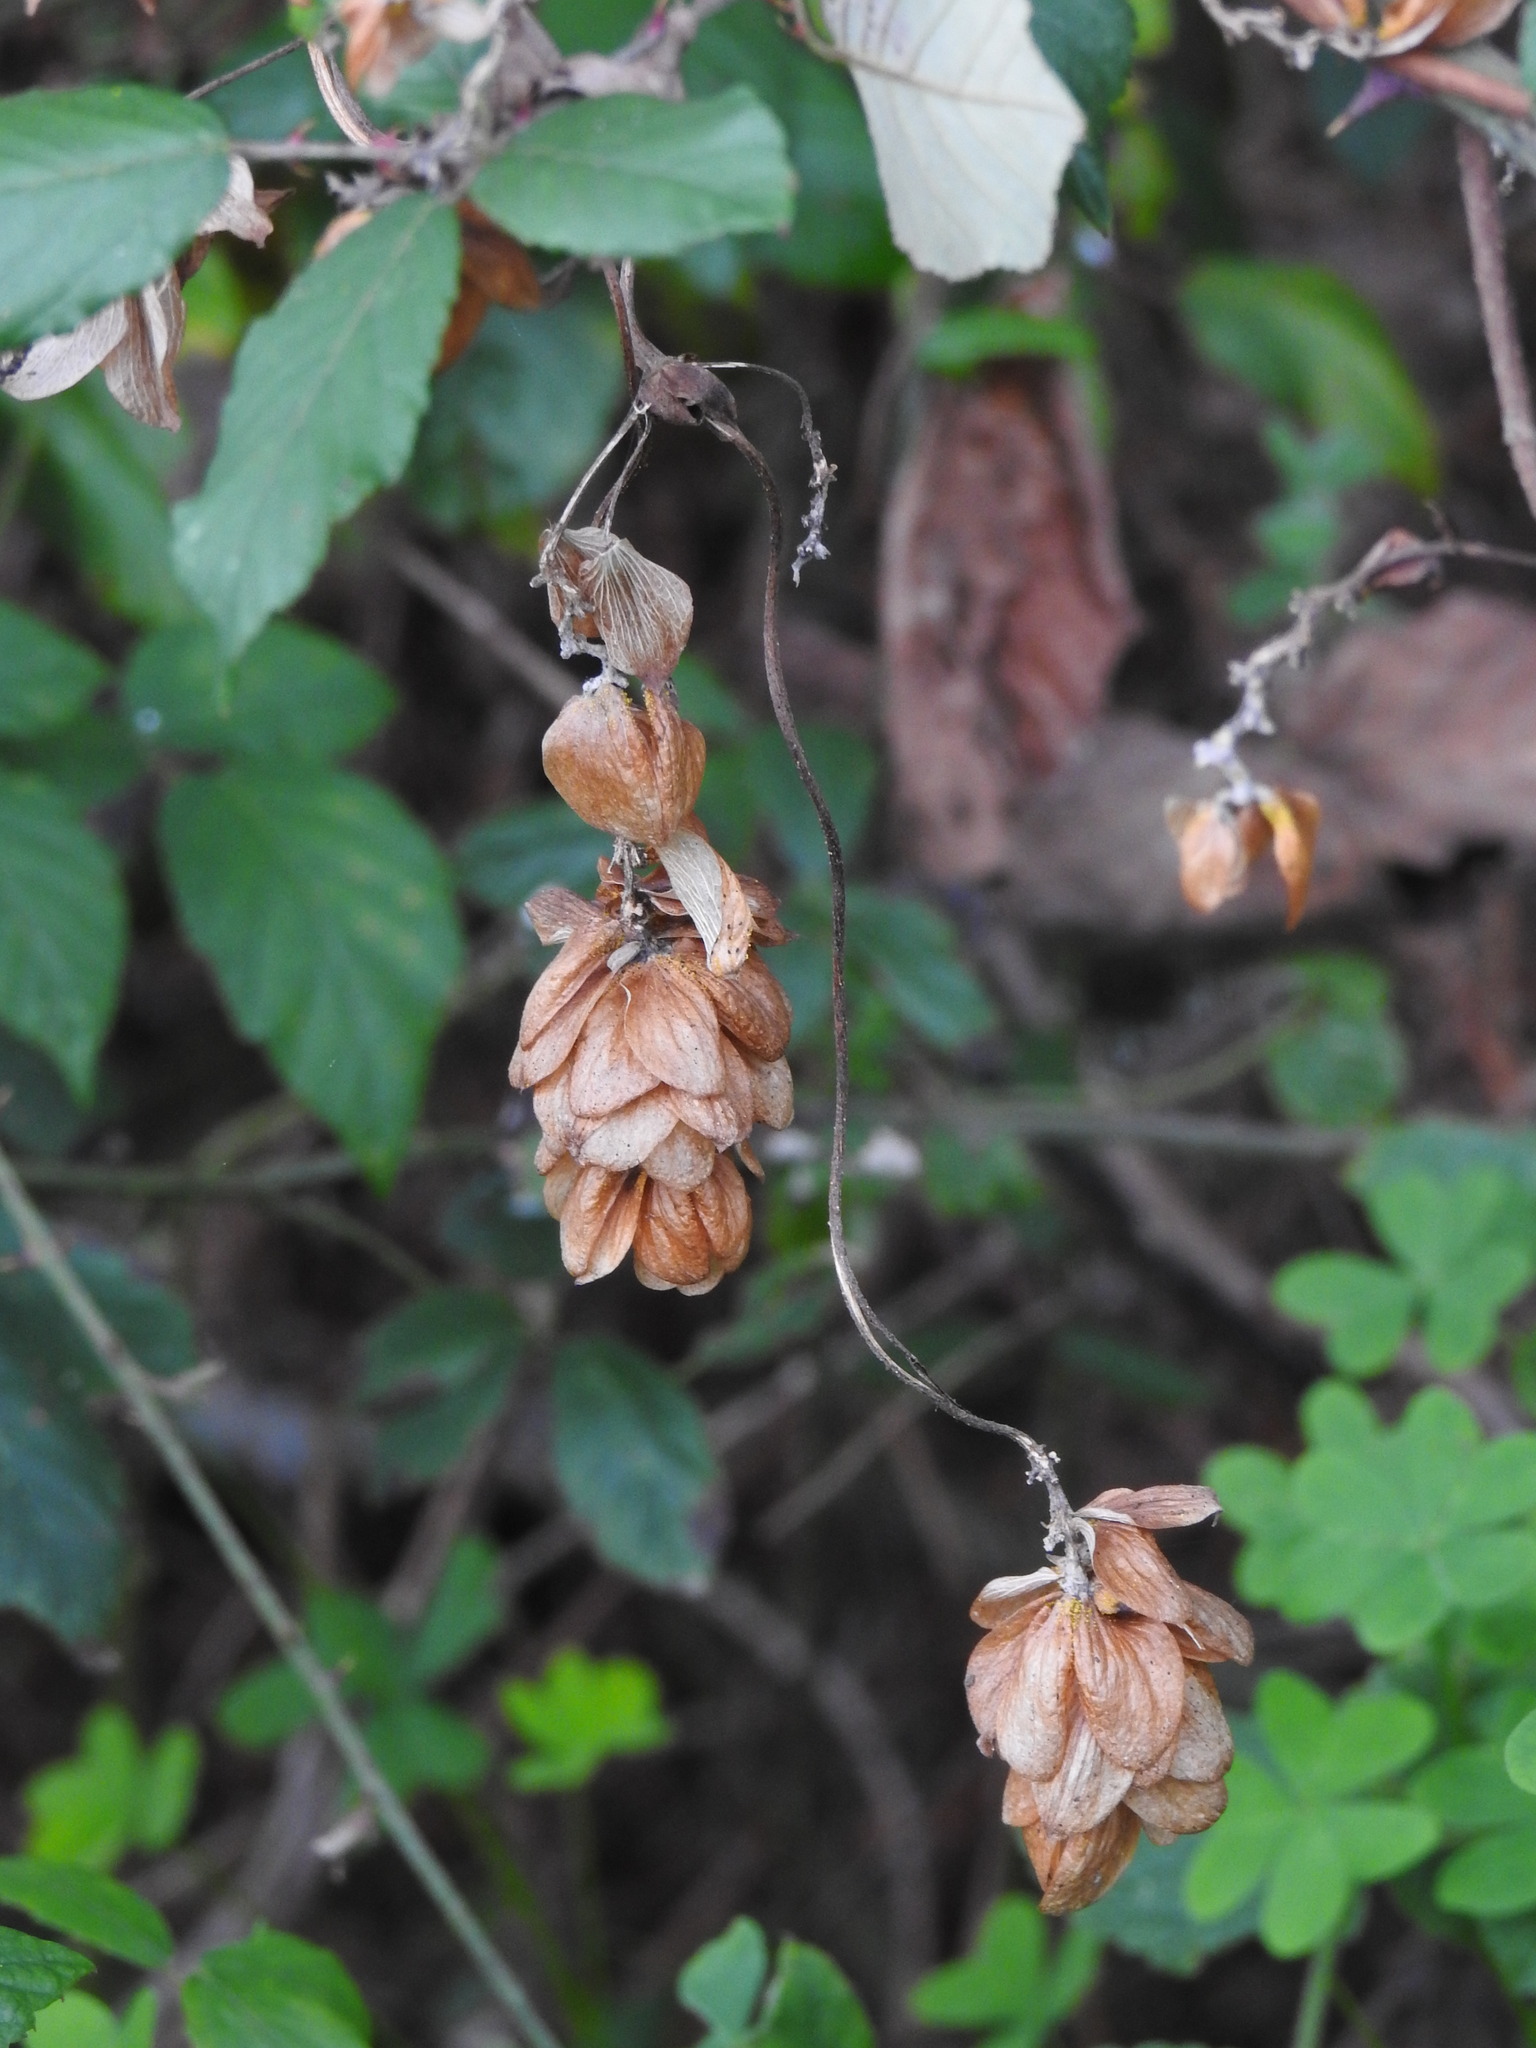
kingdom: Plantae
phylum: Tracheophyta
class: Magnoliopsida
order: Rosales
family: Cannabaceae
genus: Humulus
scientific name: Humulus lupulus
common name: Hop
